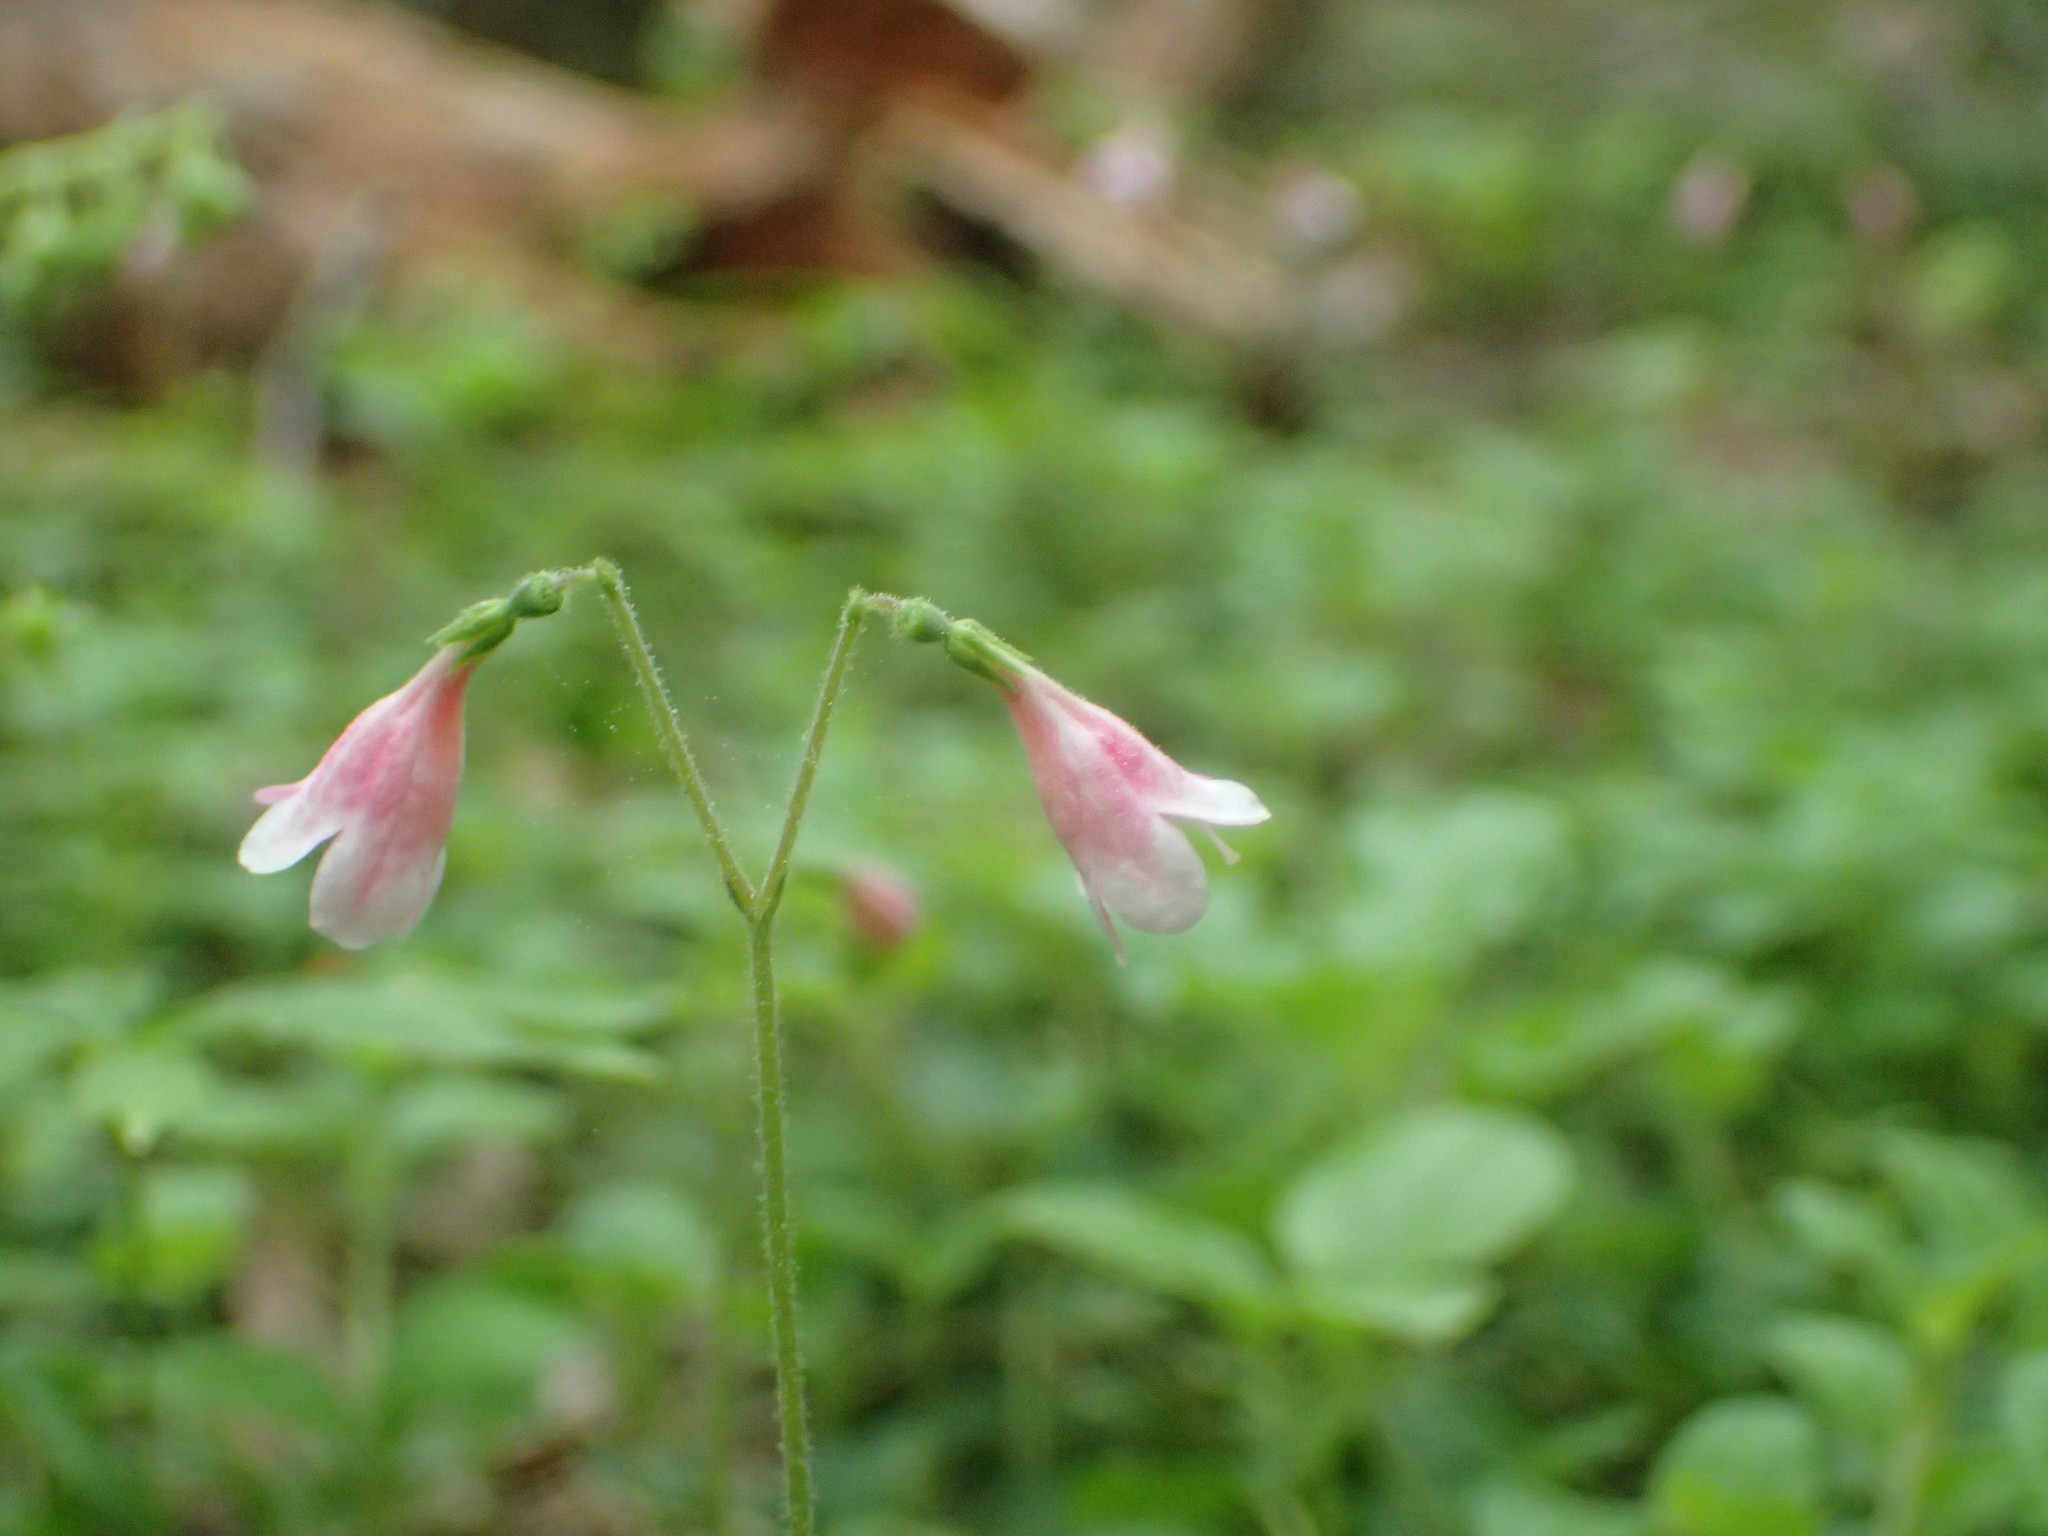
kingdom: Plantae
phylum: Tracheophyta
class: Magnoliopsida
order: Dipsacales
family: Caprifoliaceae
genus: Linnaea
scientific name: Linnaea borealis
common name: Twinflower
